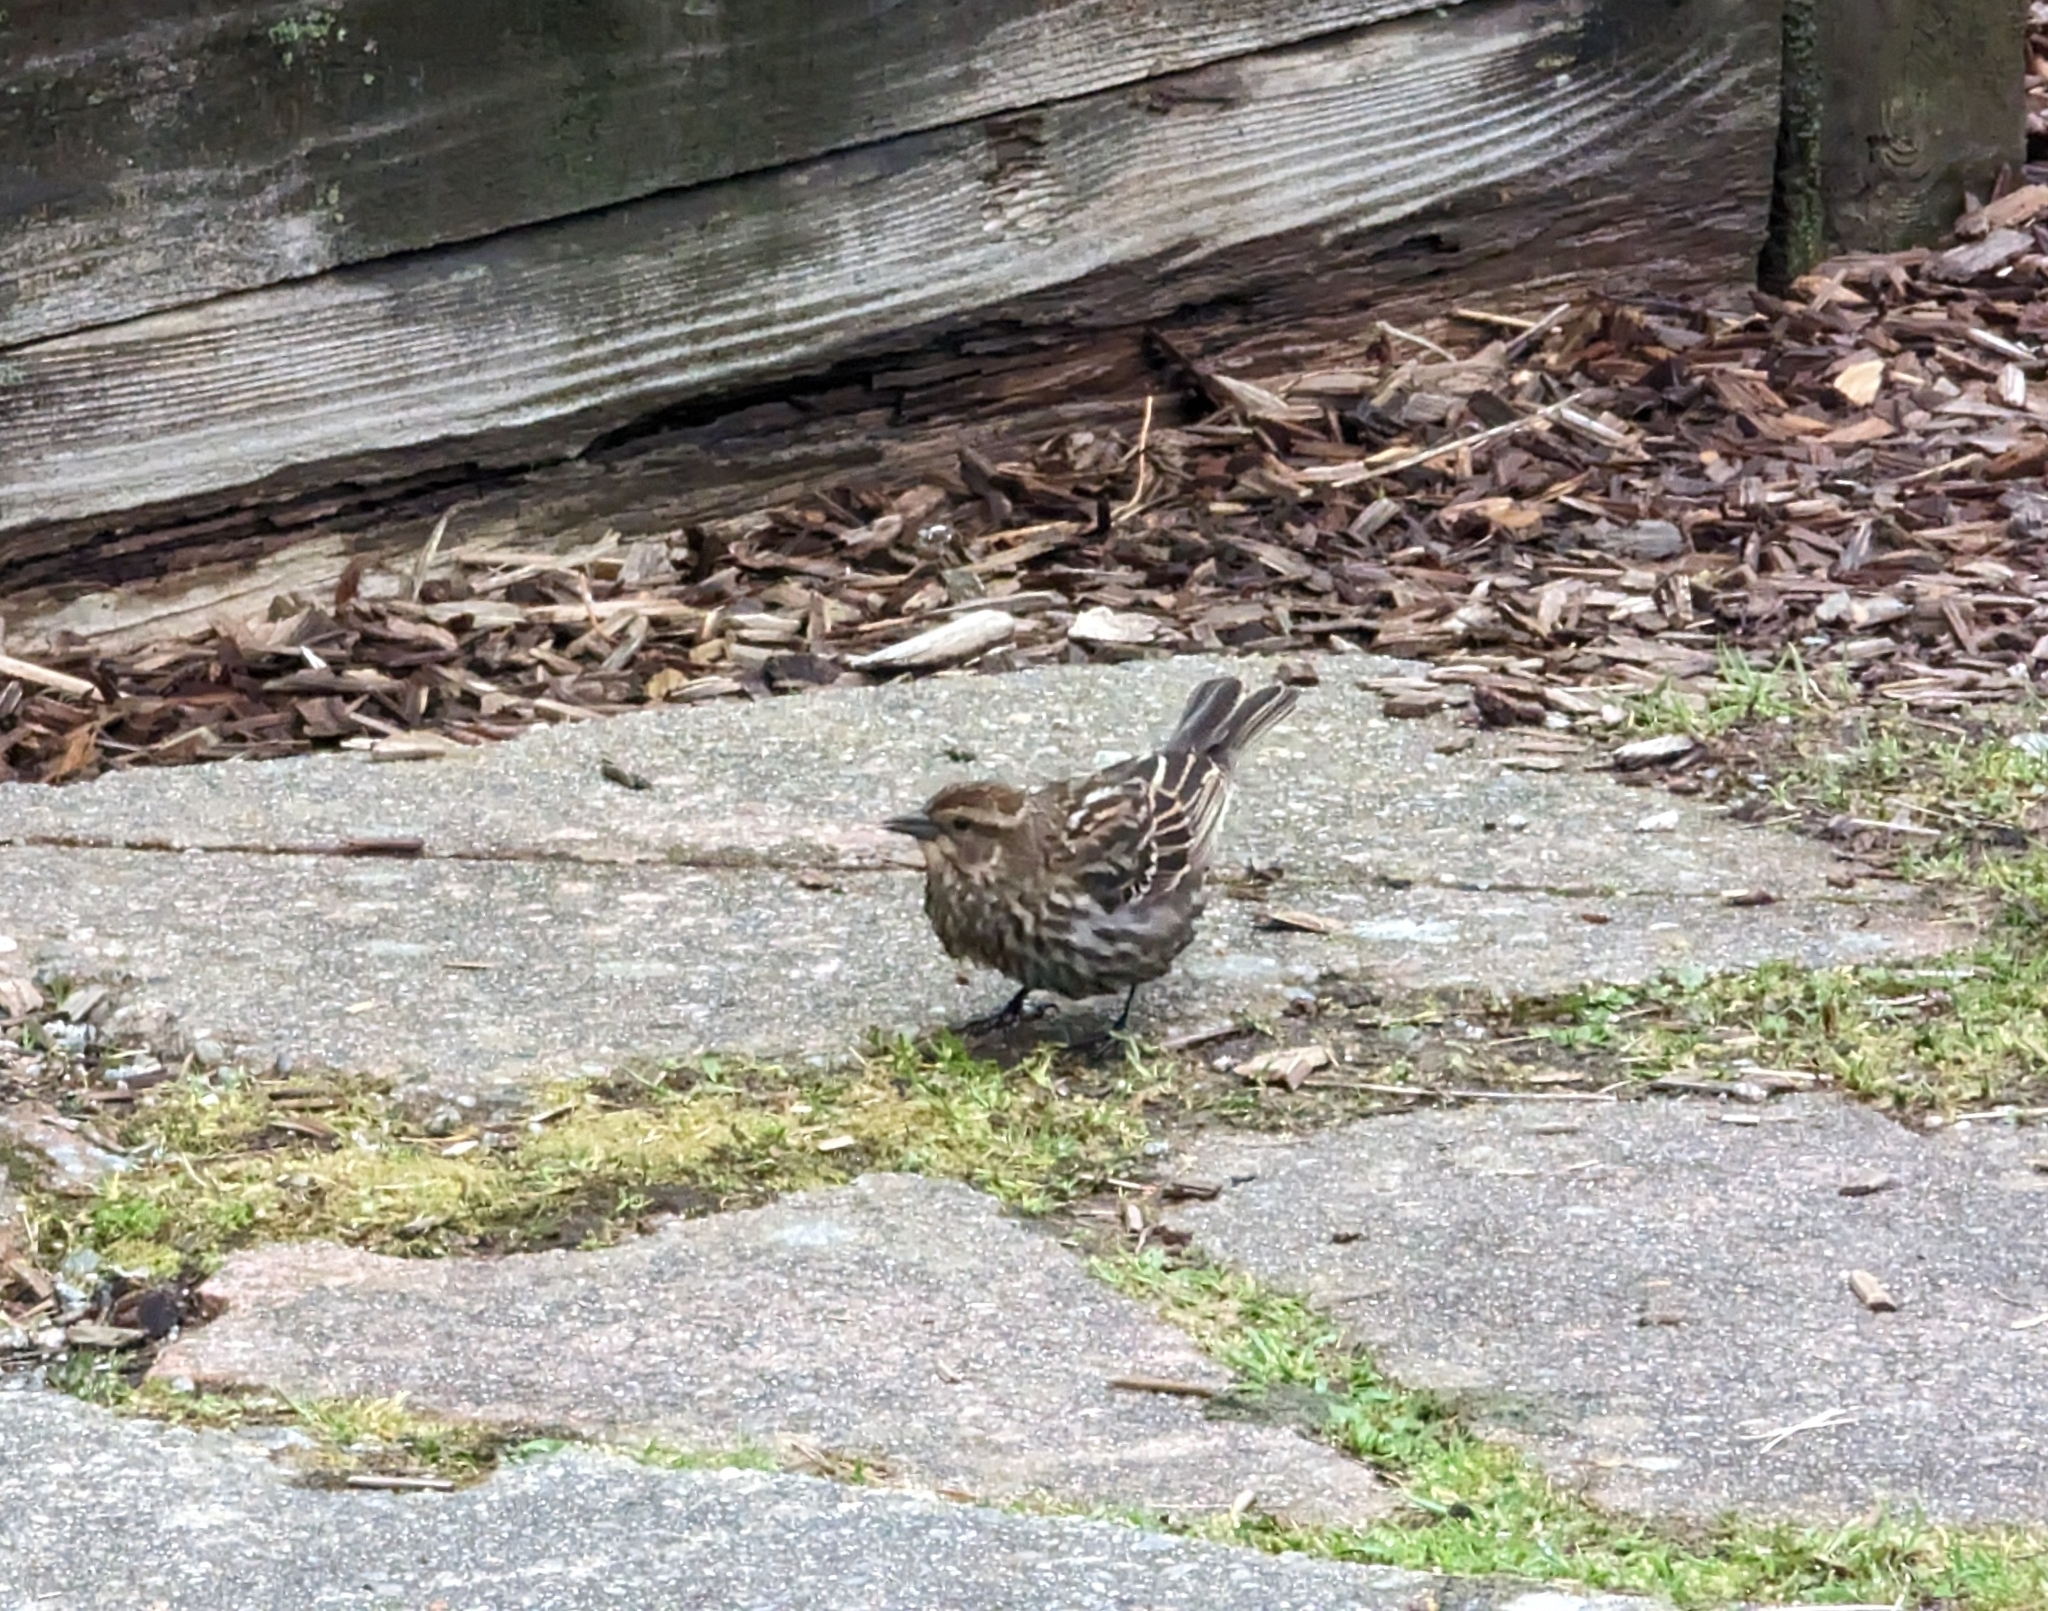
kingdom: Animalia
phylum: Chordata
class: Aves
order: Passeriformes
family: Icteridae
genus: Agelaius
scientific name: Agelaius phoeniceus
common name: Red-winged blackbird
